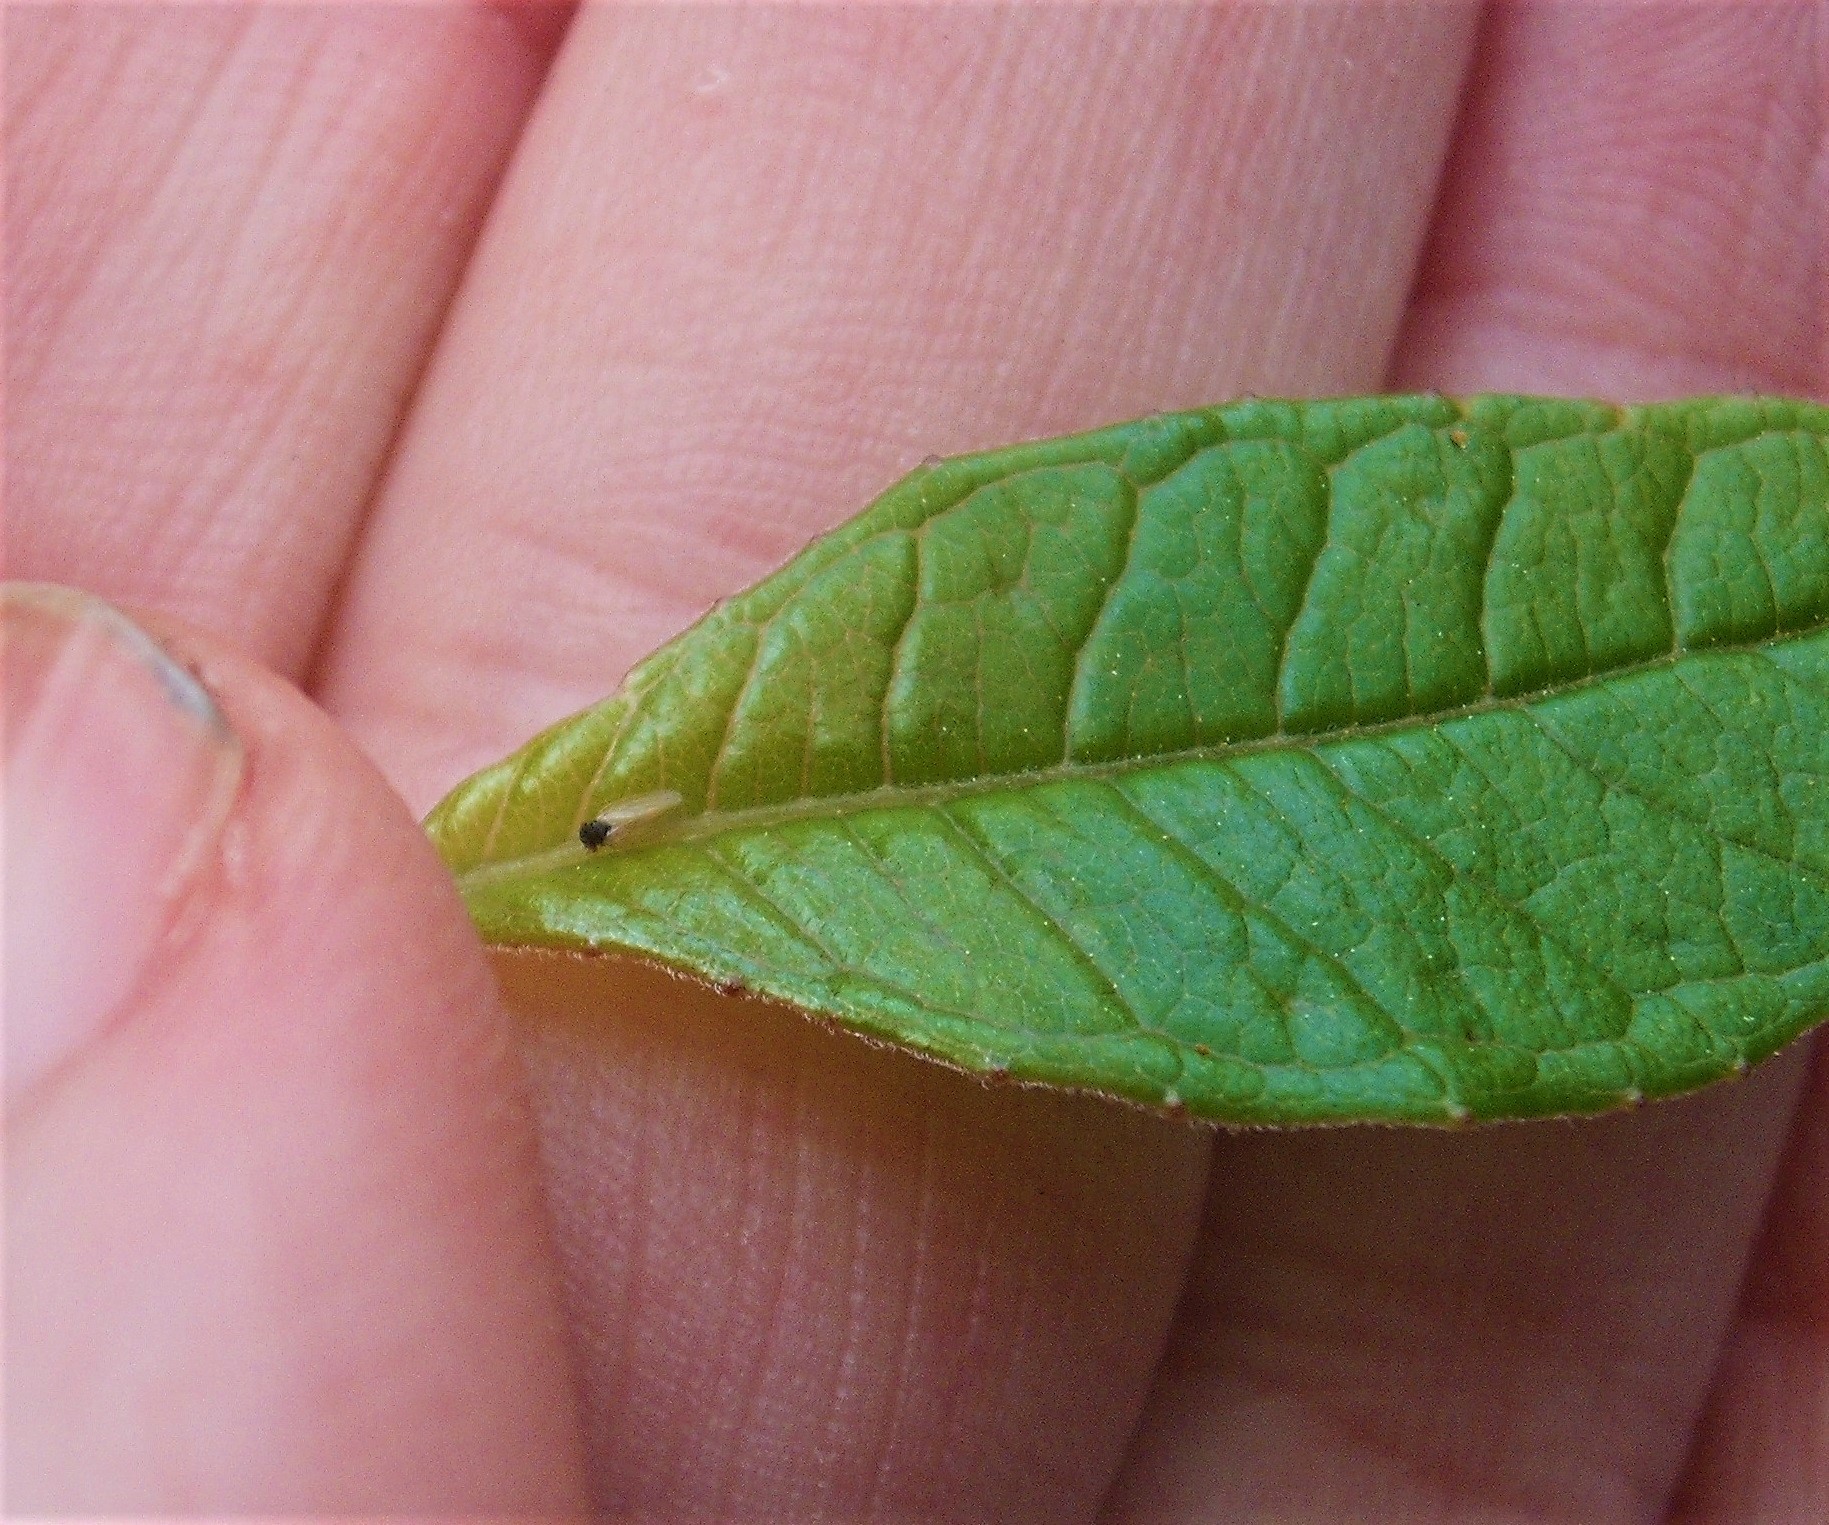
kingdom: Animalia
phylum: Arthropoda
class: Insecta
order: Hemiptera
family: Aphalaridae
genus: Ctenarytaina
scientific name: Ctenarytaina fuchsiae
